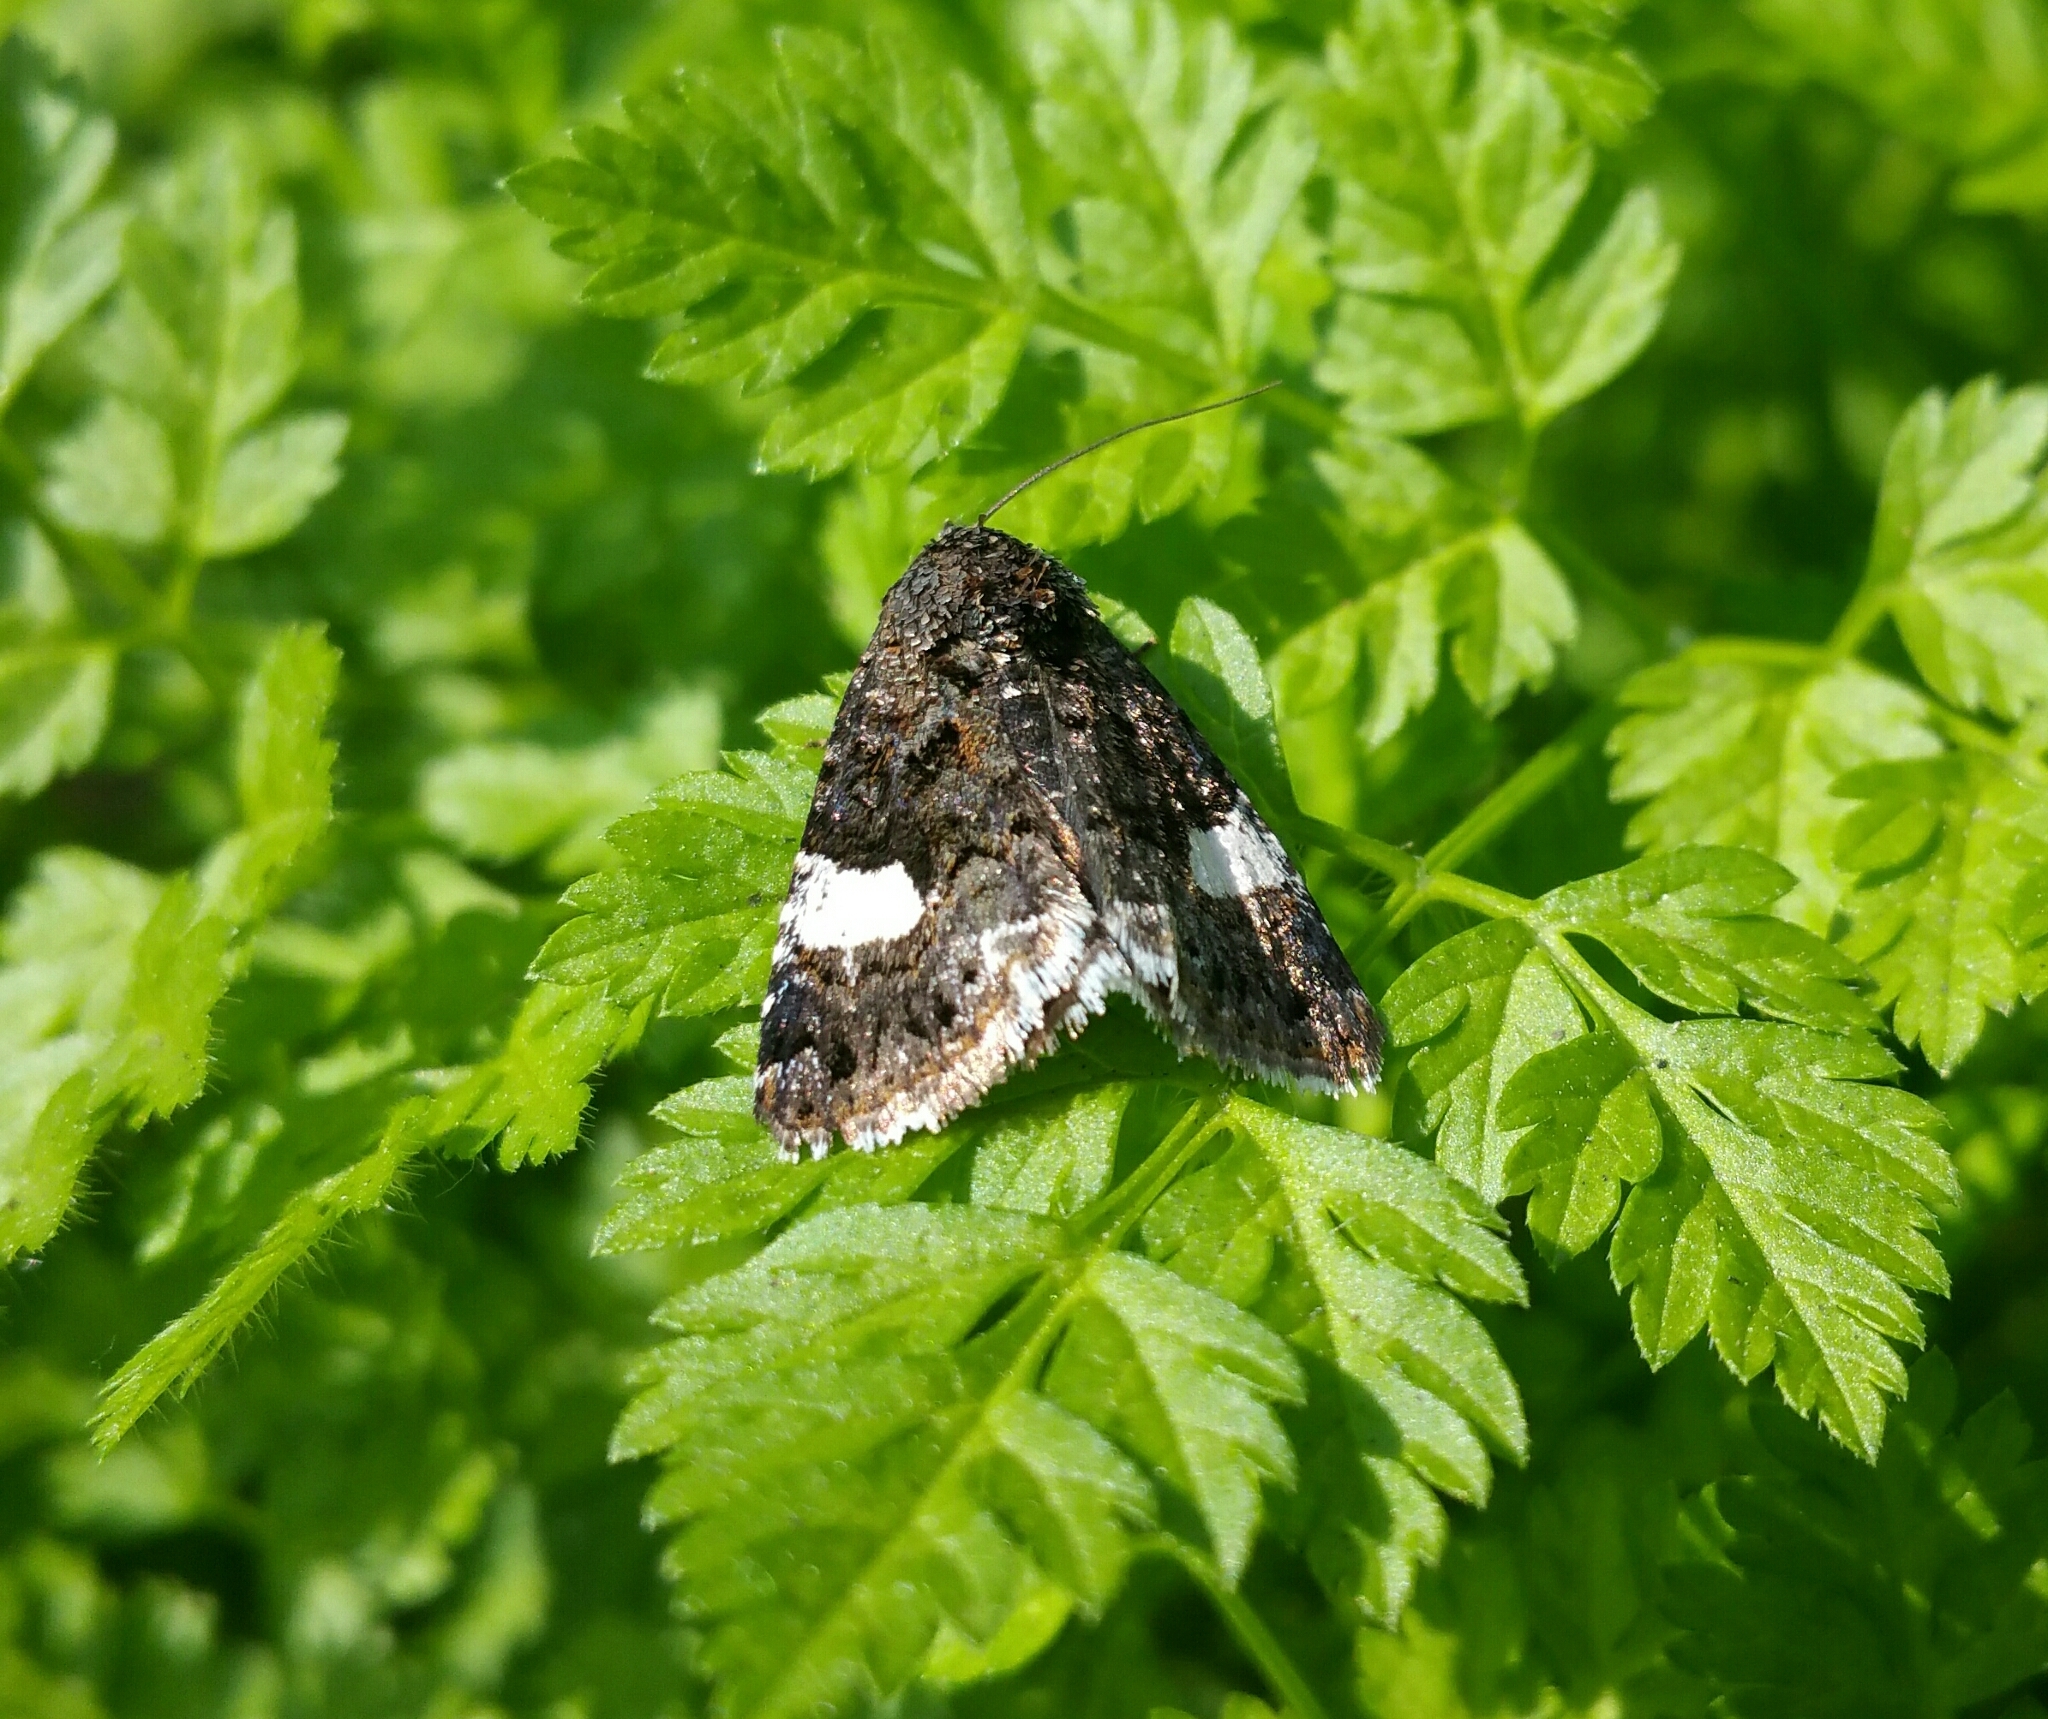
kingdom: Animalia
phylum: Arthropoda
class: Insecta
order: Lepidoptera
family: Erebidae
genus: Tyta
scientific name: Tyta luctuosa
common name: Four-spotted
